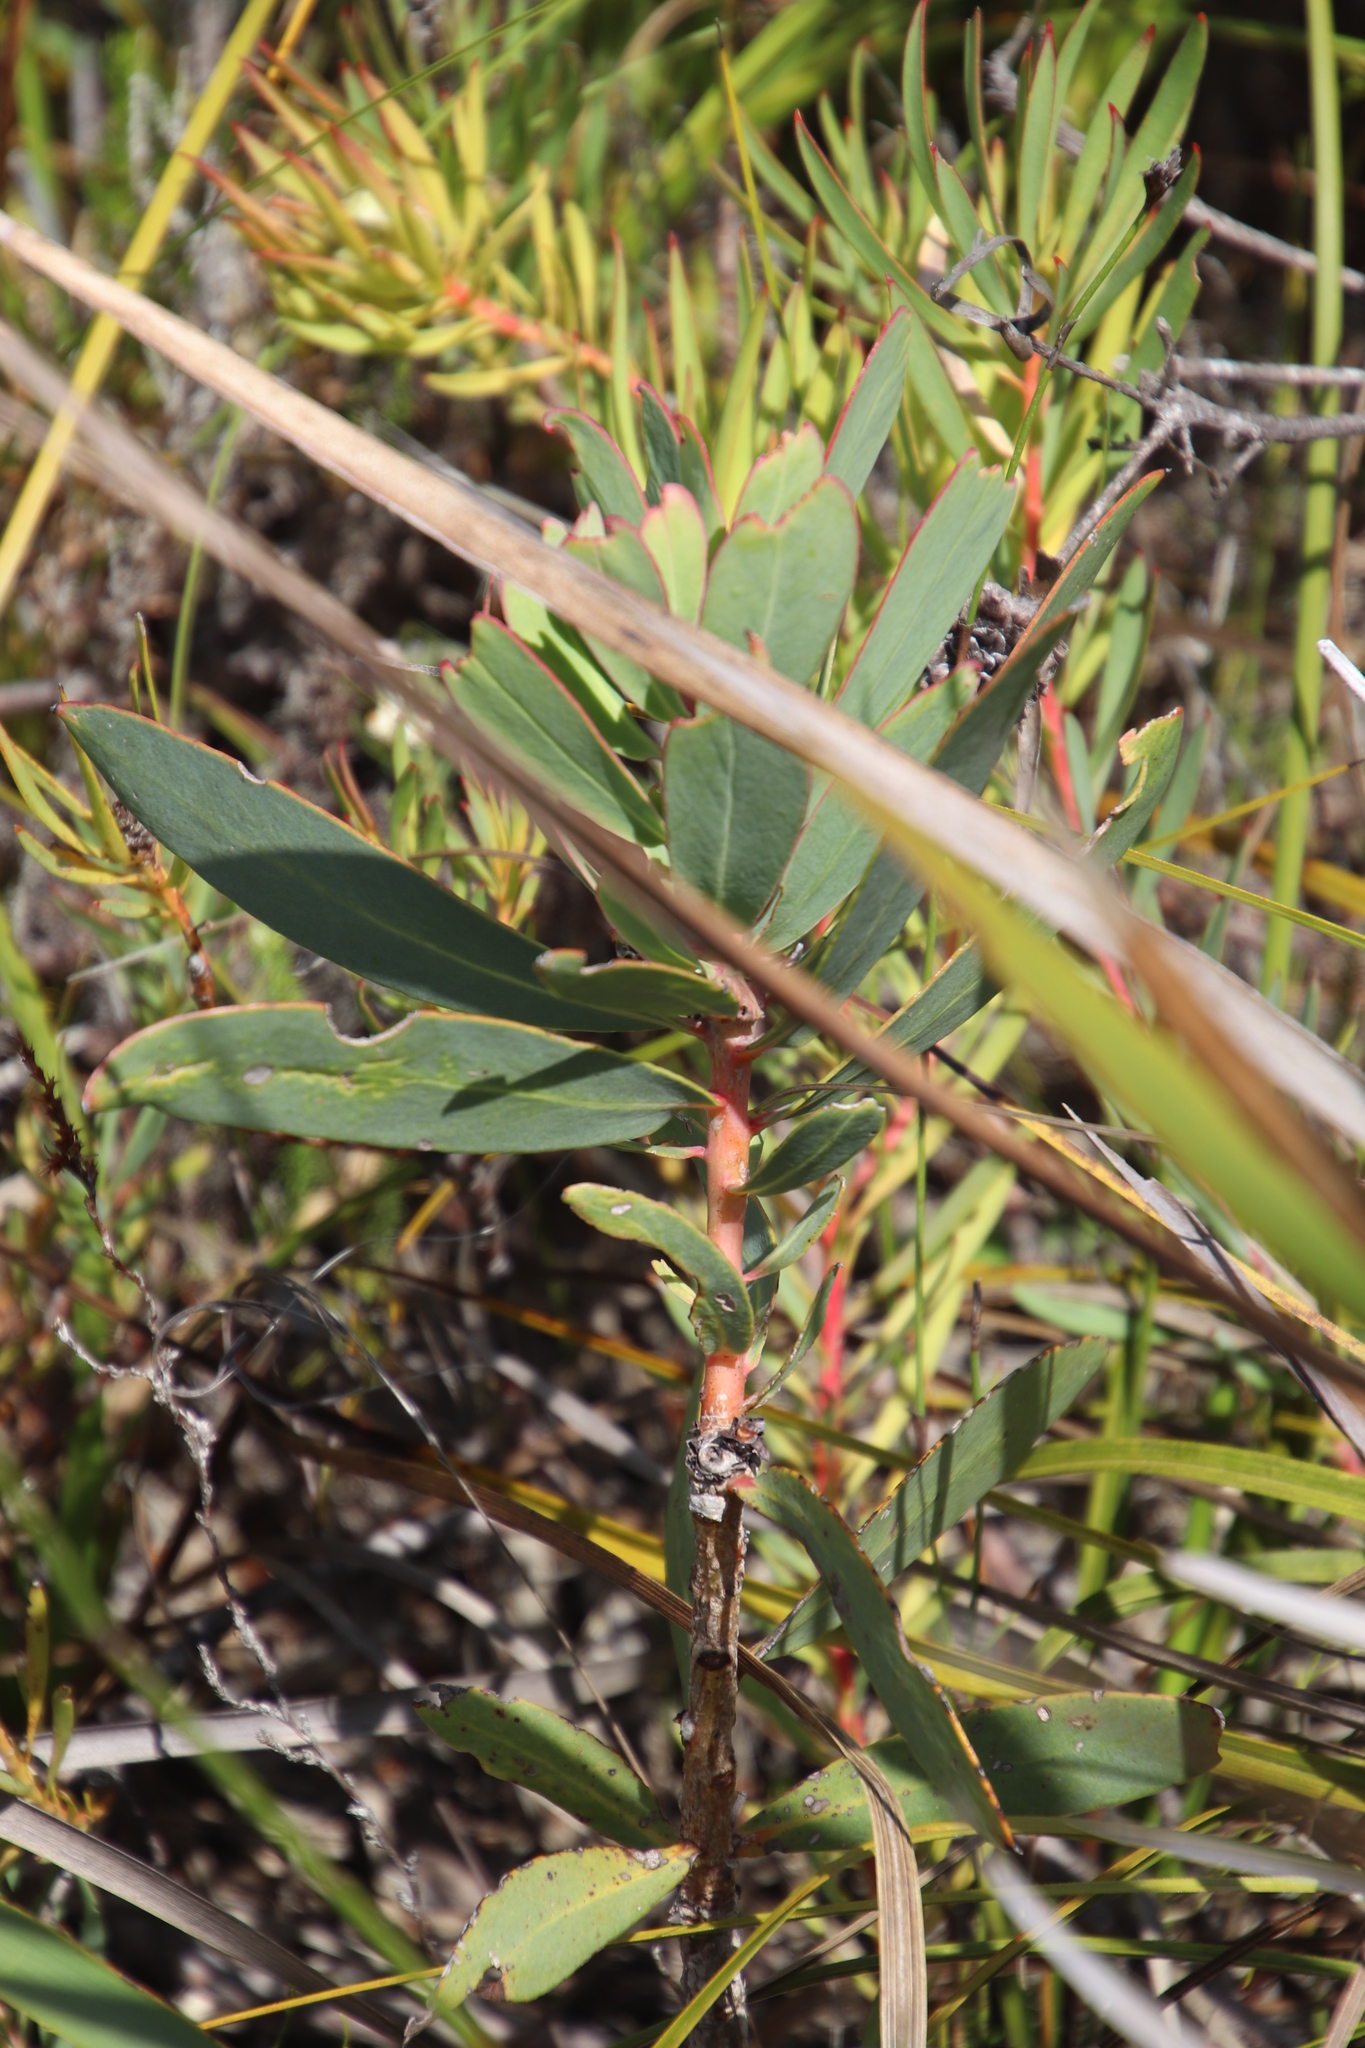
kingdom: Plantae
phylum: Tracheophyta
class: Magnoliopsida
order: Proteales
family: Proteaceae
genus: Protea
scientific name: Protea nitida
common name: Tree protea
